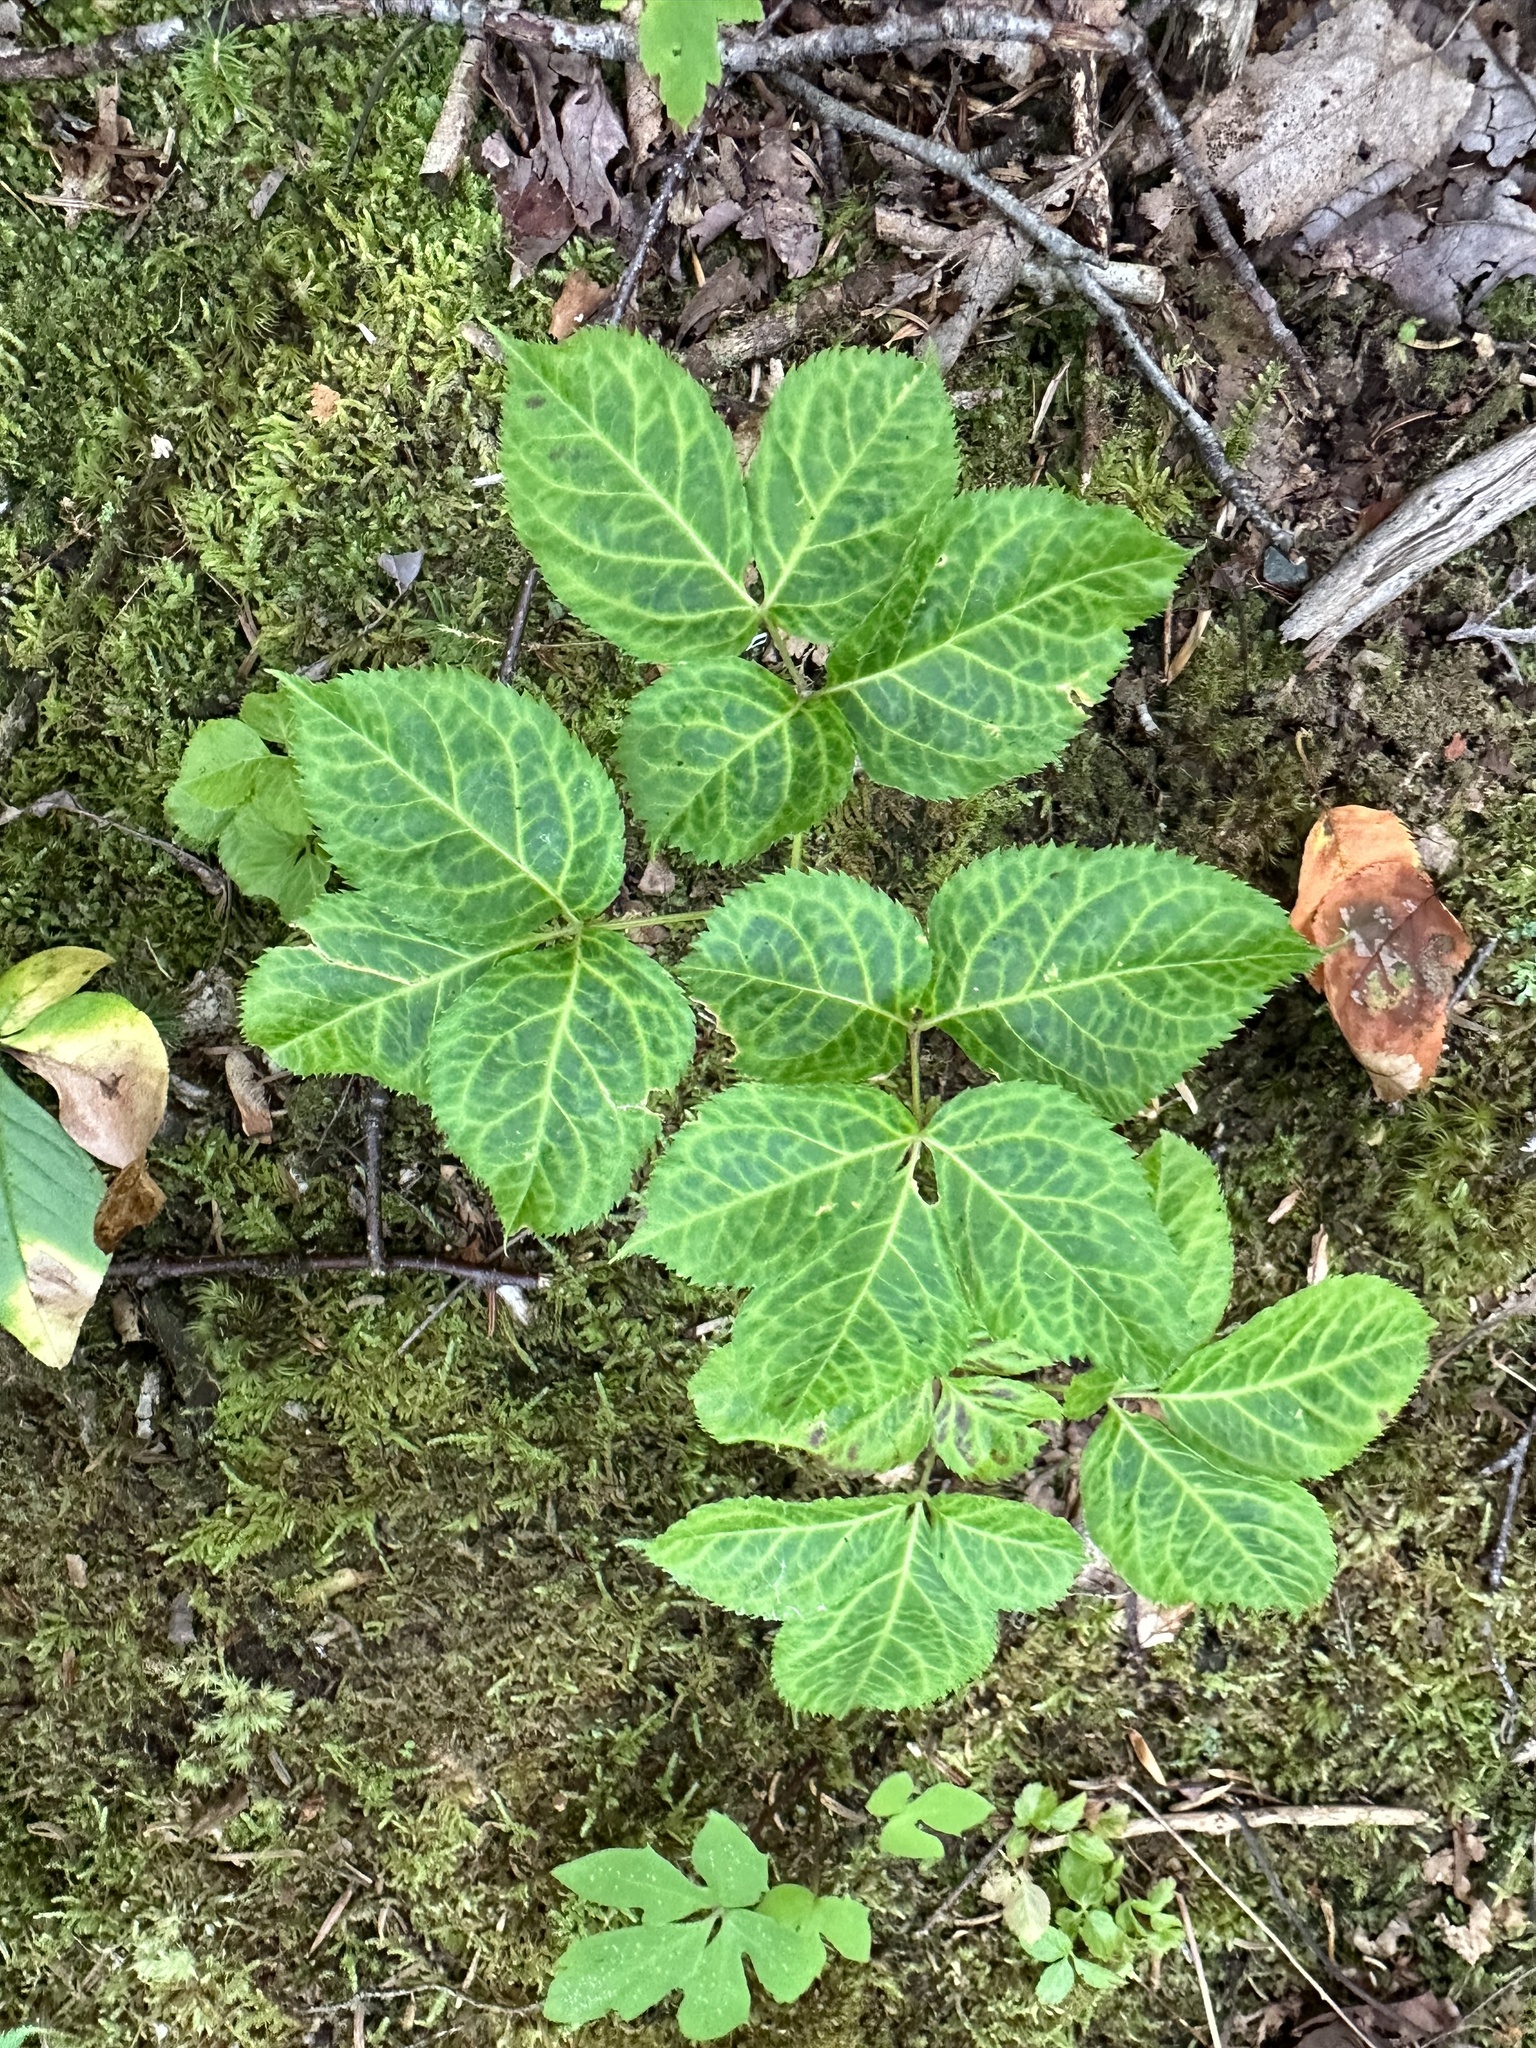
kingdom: Plantae
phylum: Tracheophyta
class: Magnoliopsida
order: Apiales
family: Araliaceae
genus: Aralia
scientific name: Aralia nudicaulis
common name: Wild sarsaparilla
